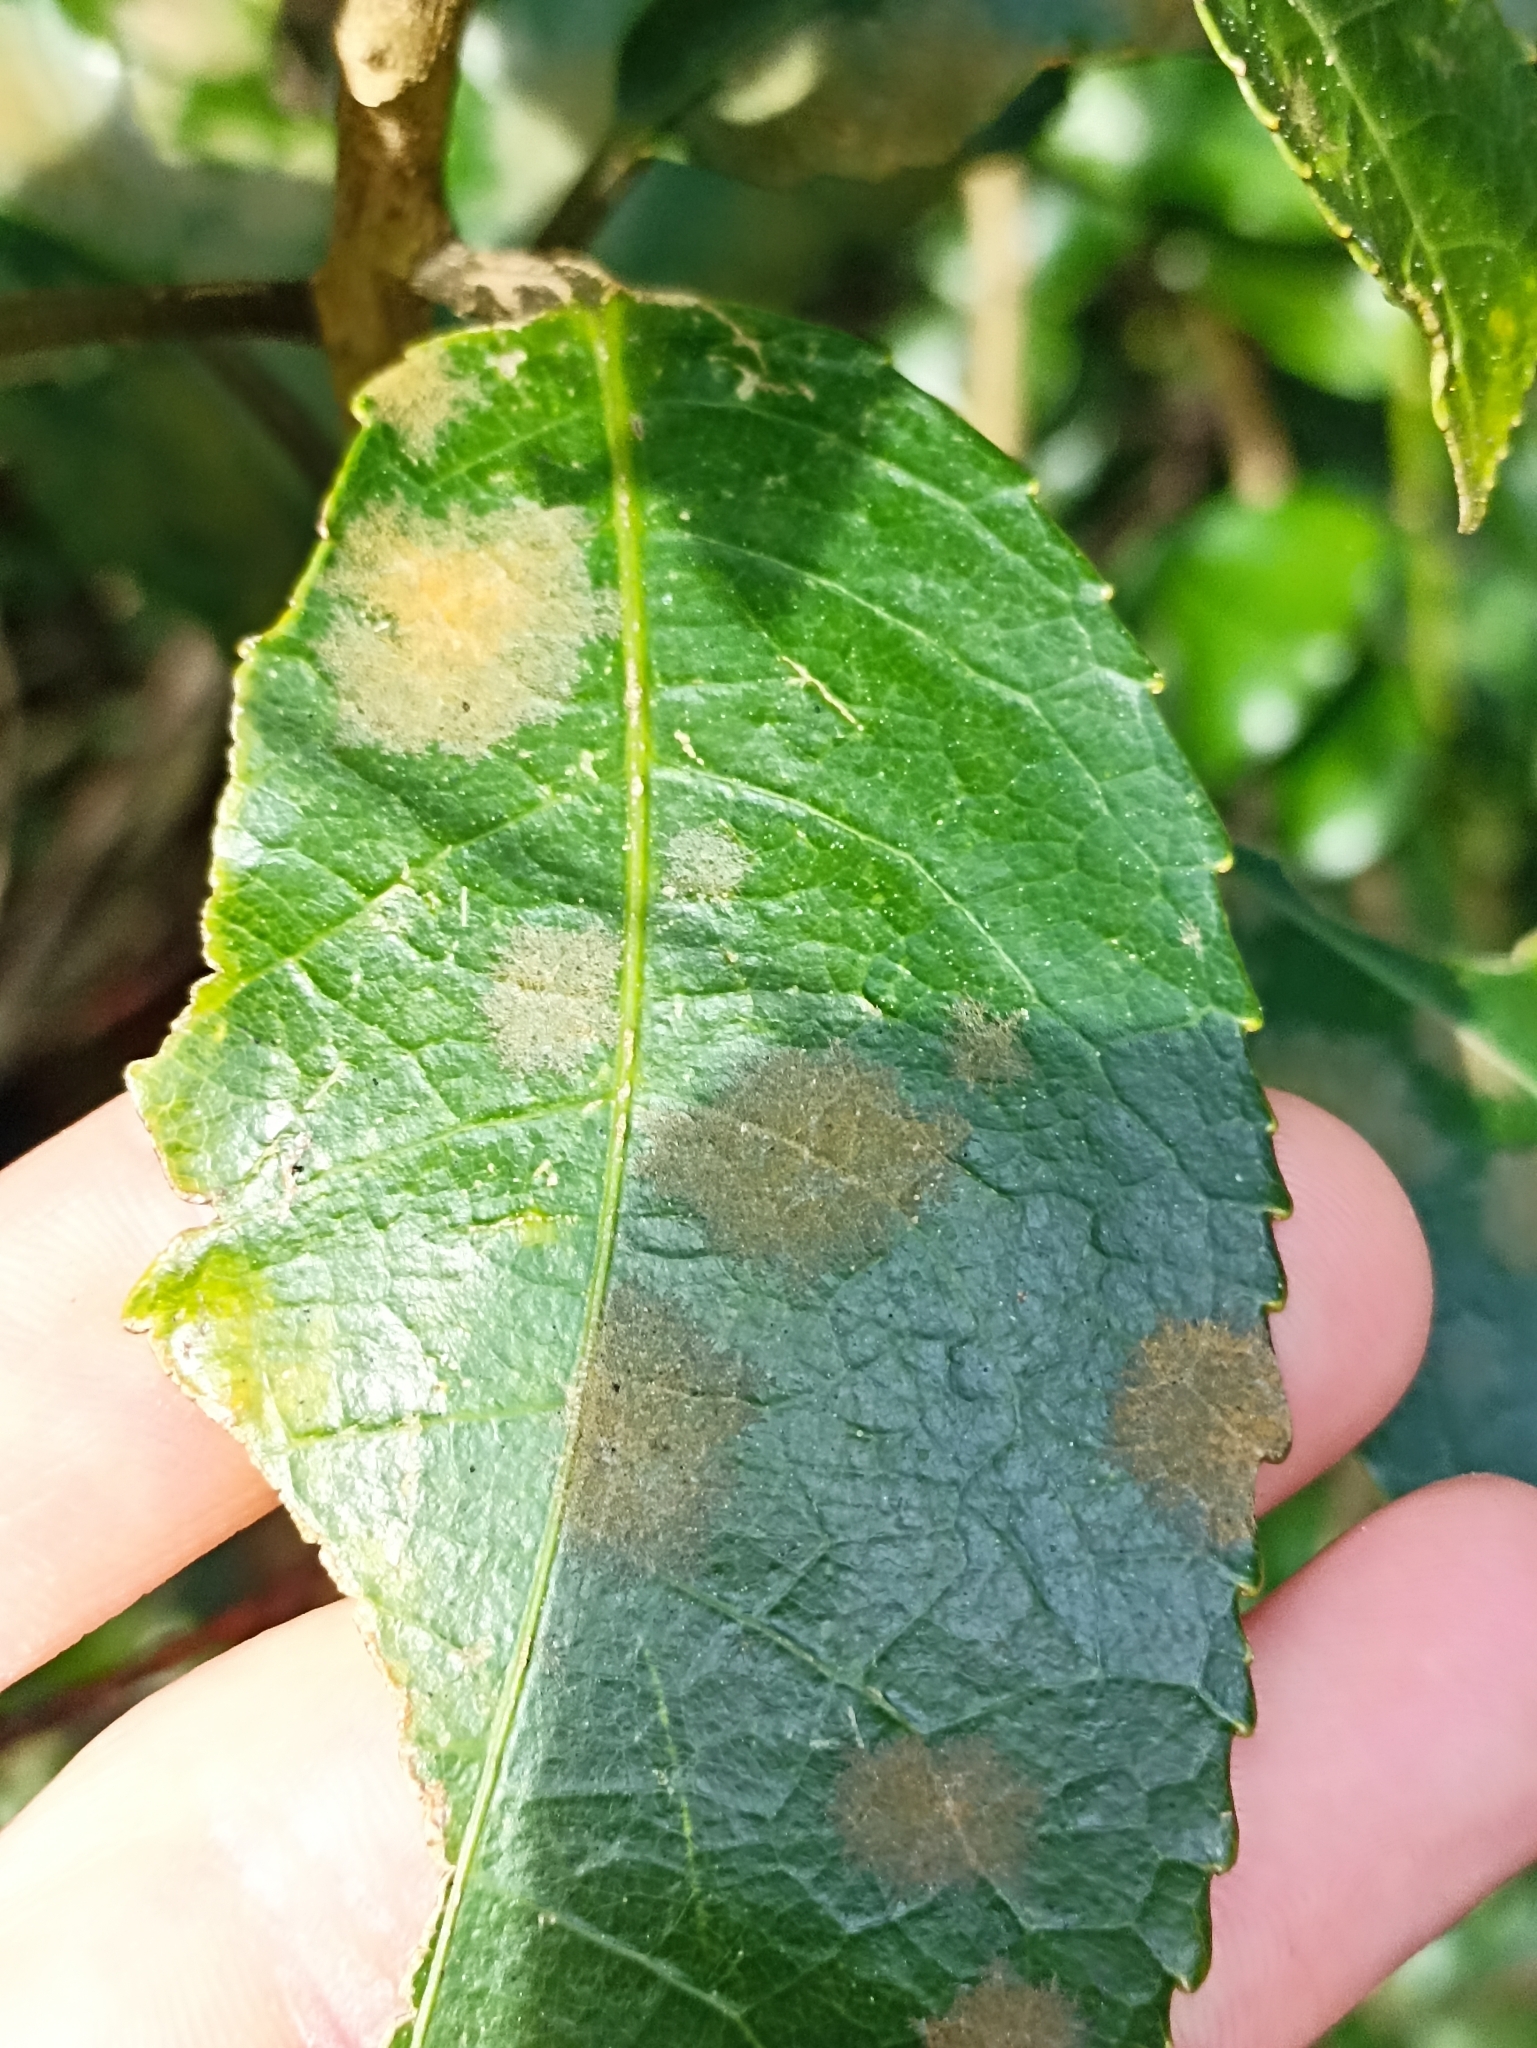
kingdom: Plantae
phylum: Chlorophyta
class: Ulvophyceae
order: Trentepohliales
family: Trentepohliaceae
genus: Cephaleuros
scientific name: Cephaleuros
